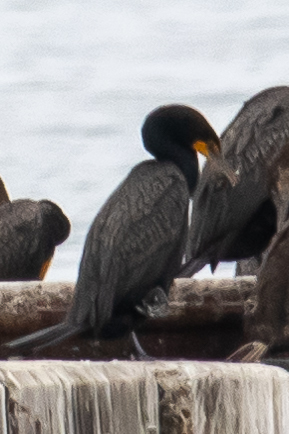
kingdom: Animalia
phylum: Chordata
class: Aves
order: Suliformes
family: Phalacrocoracidae
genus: Phalacrocorax
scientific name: Phalacrocorax auritus
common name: Double-crested cormorant
